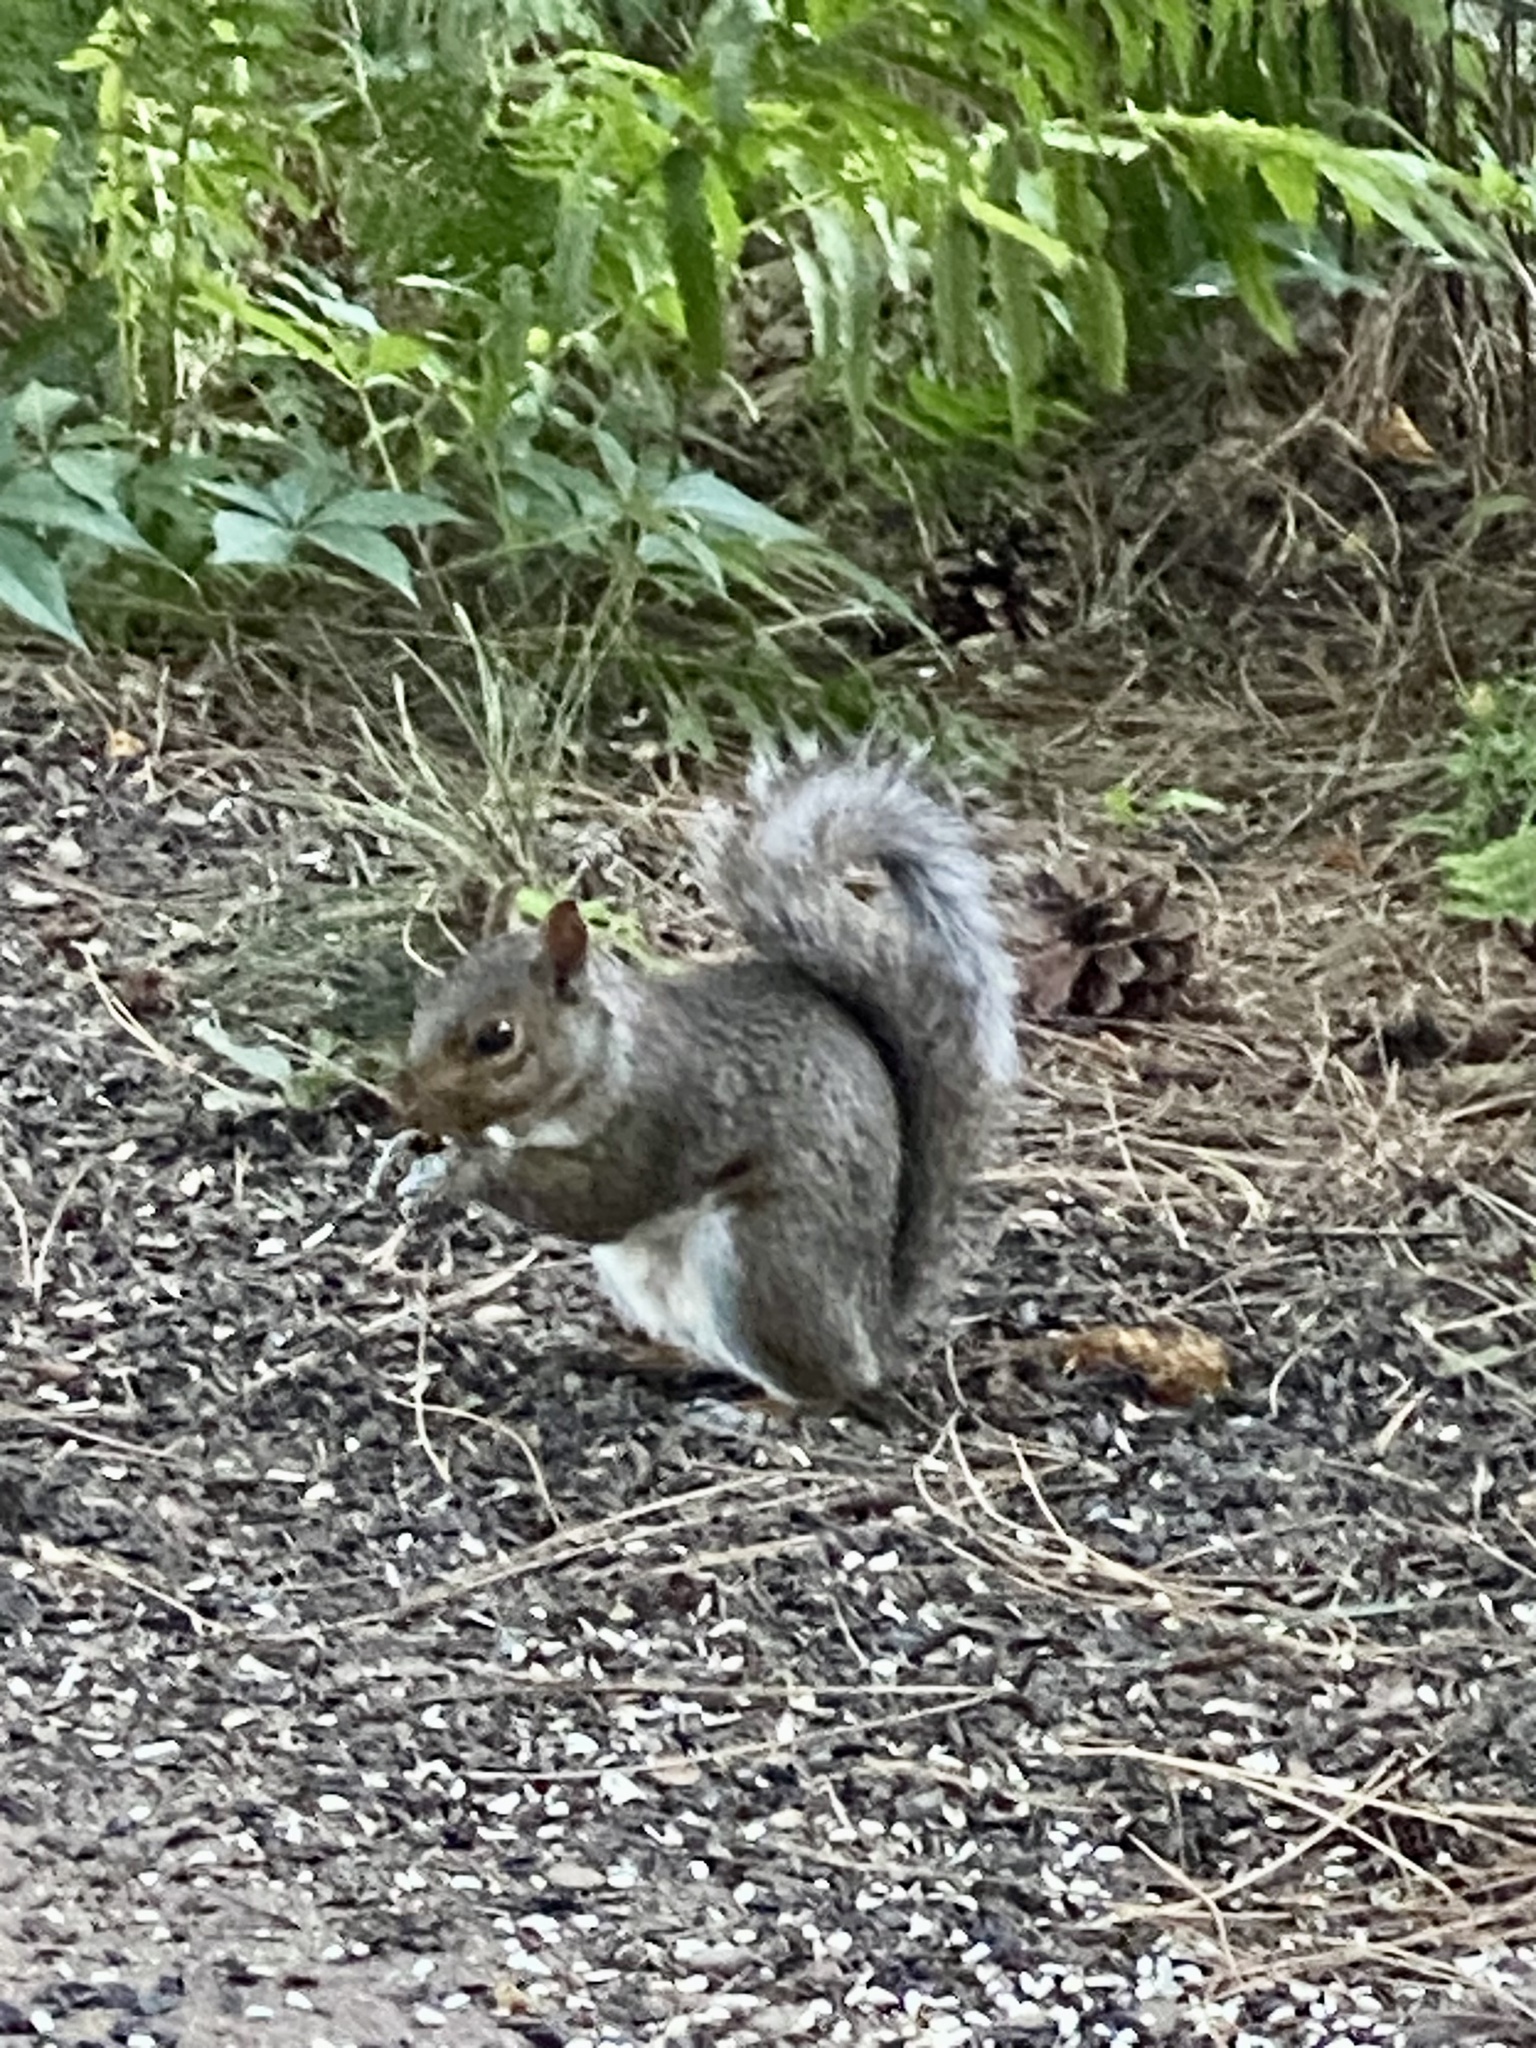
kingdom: Animalia
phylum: Chordata
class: Mammalia
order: Rodentia
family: Sciuridae
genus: Sciurus
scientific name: Sciurus carolinensis
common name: Eastern gray squirrel
